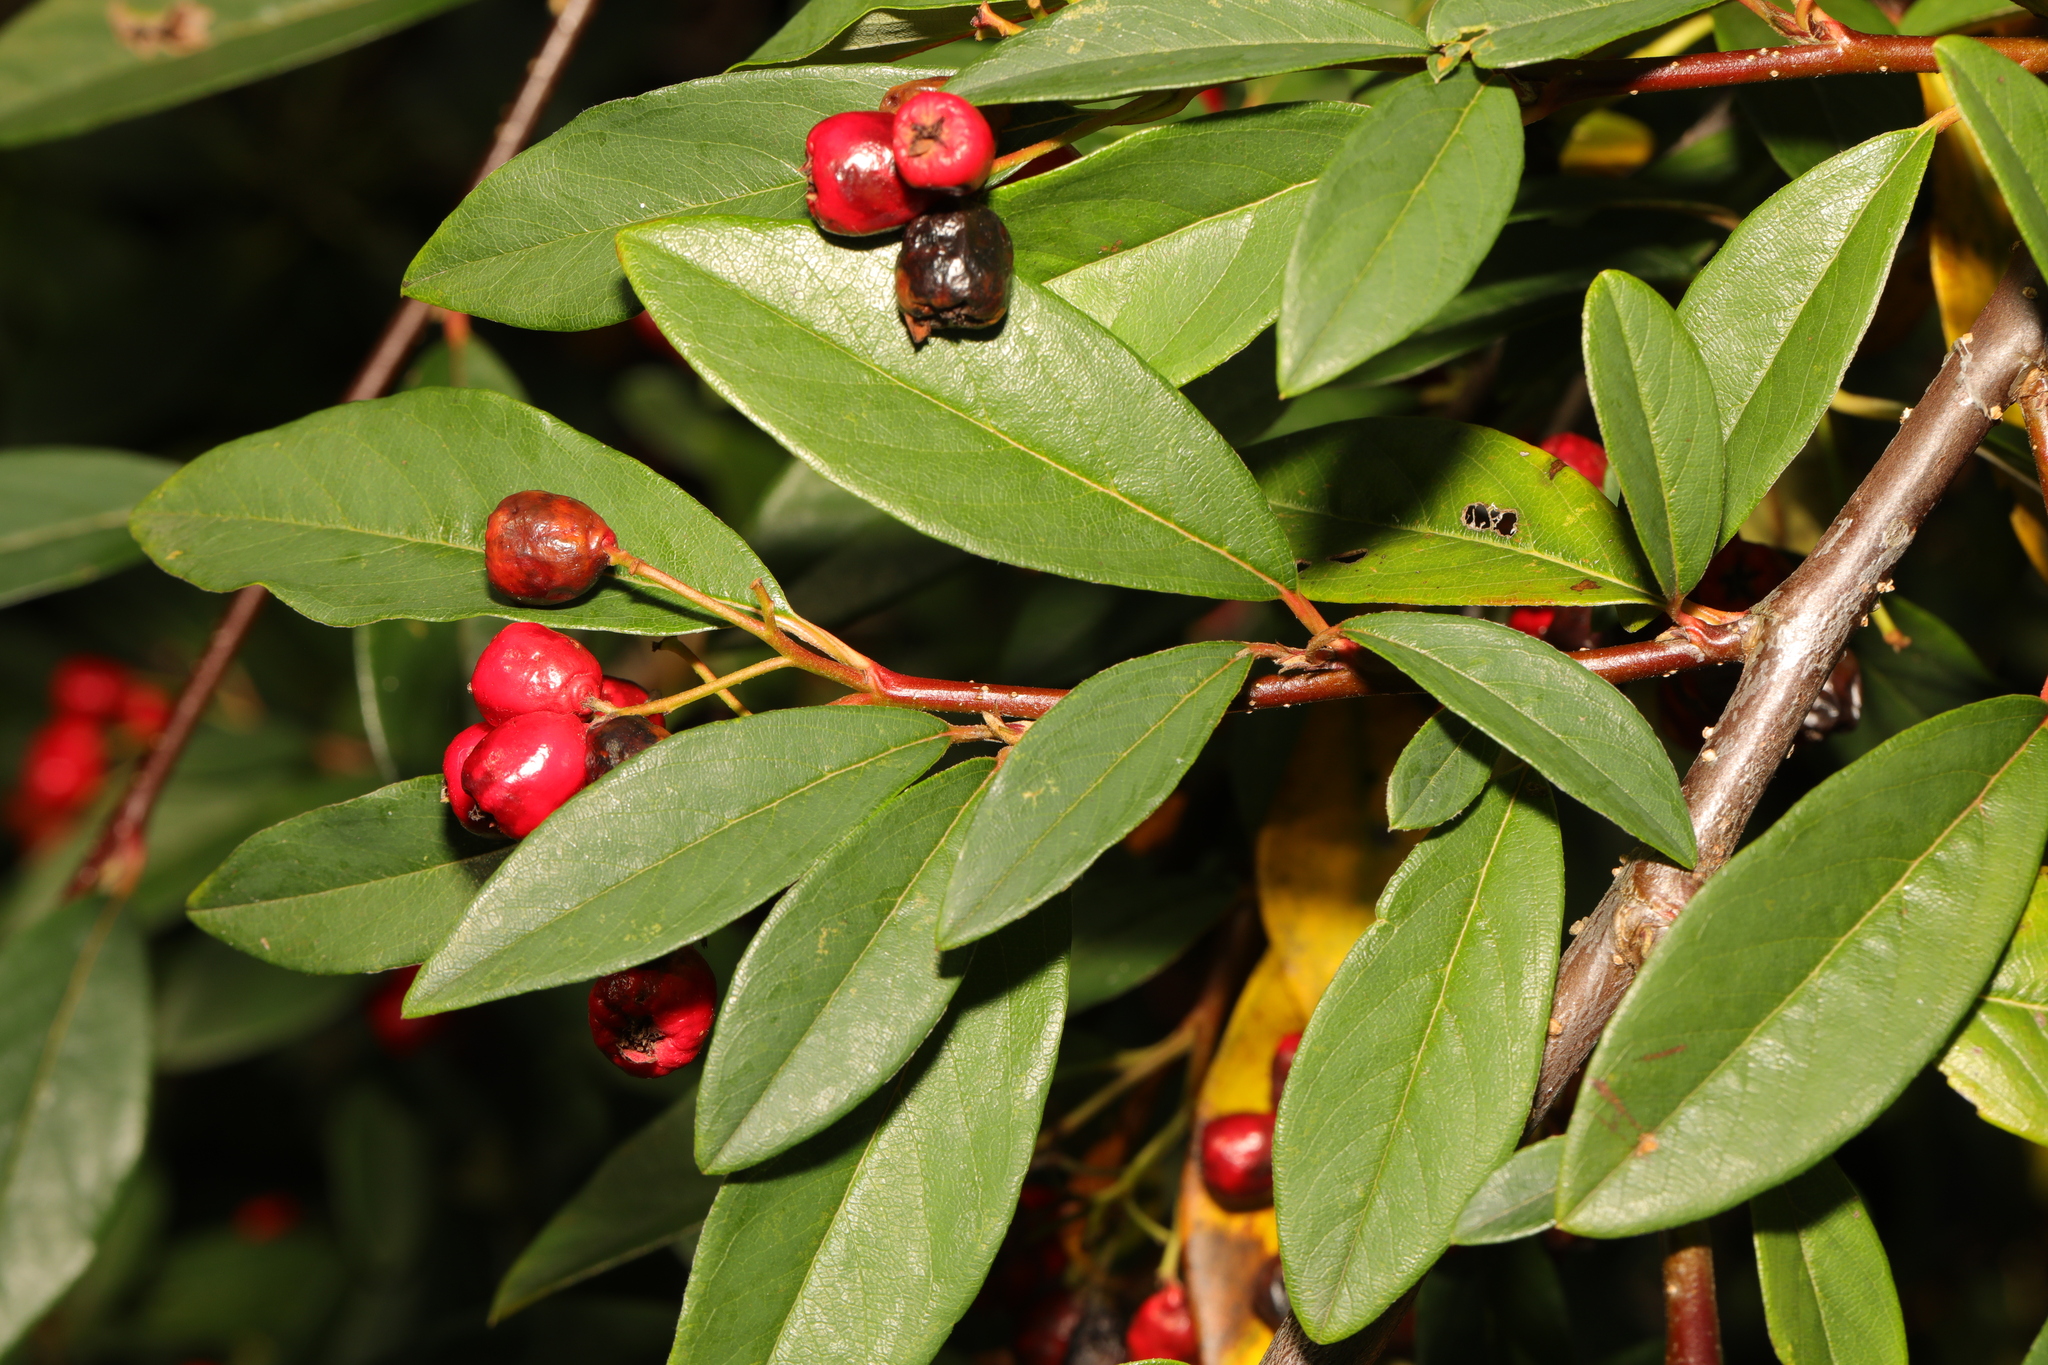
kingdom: Plantae
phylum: Tracheophyta
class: Magnoliopsida
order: Rosales
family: Rosaceae
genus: Cotoneaster
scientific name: Cotoneaster frigidus
